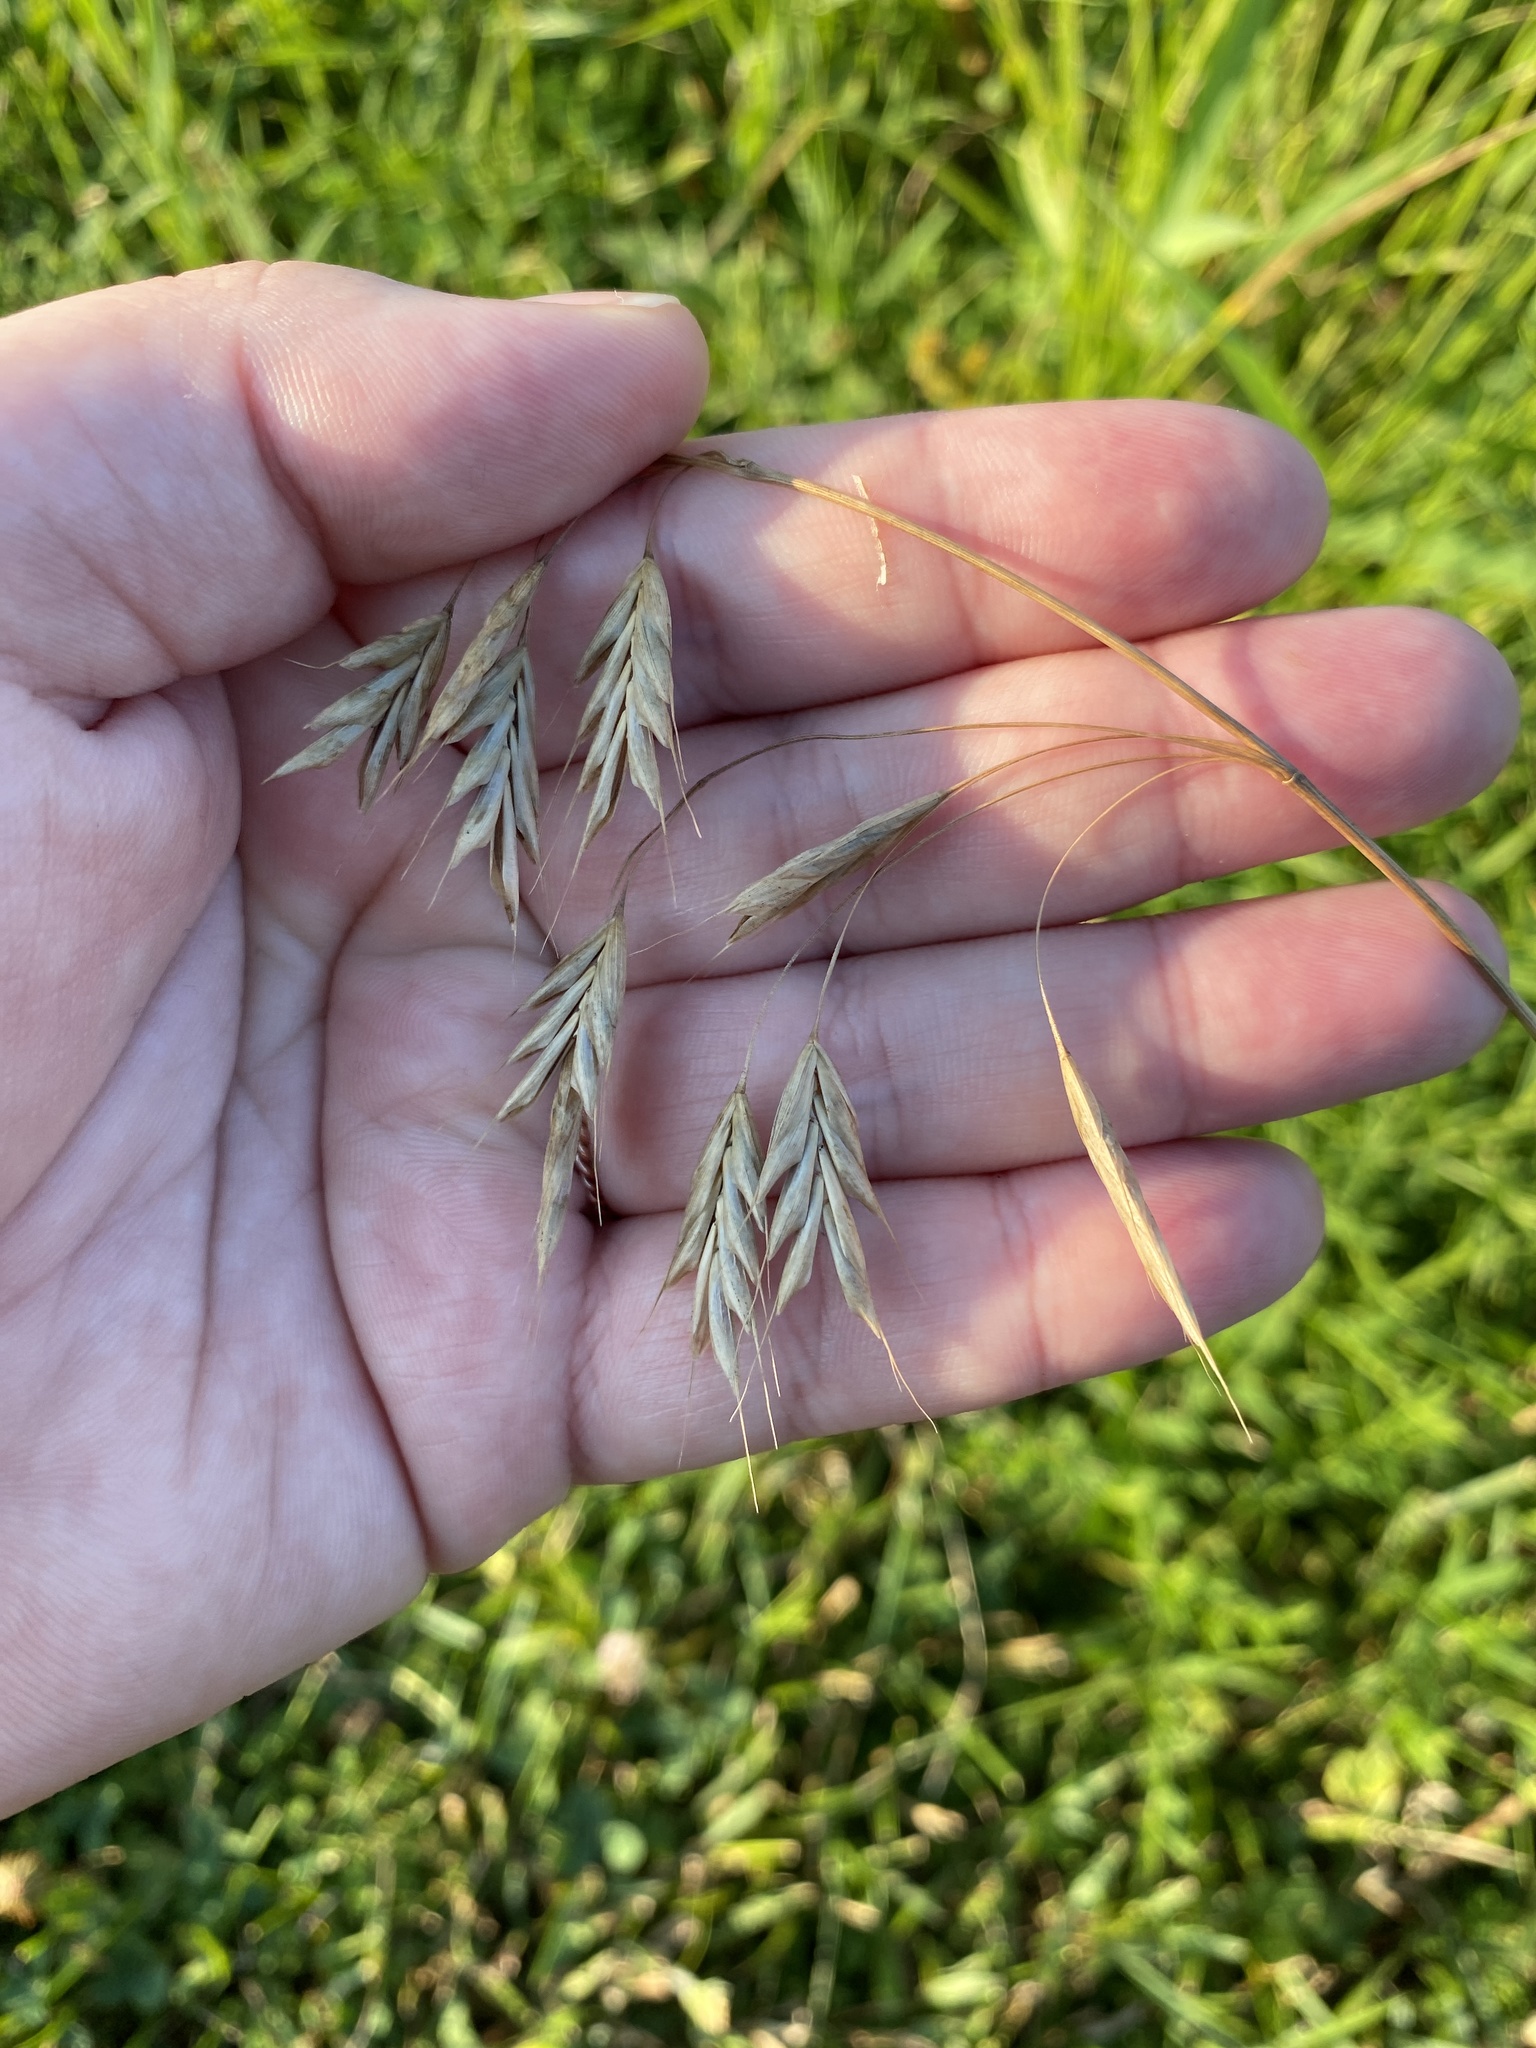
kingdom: Plantae
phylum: Tracheophyta
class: Liliopsida
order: Poales
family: Poaceae
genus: Bromus
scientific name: Bromus japonicus
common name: Japanese brome
